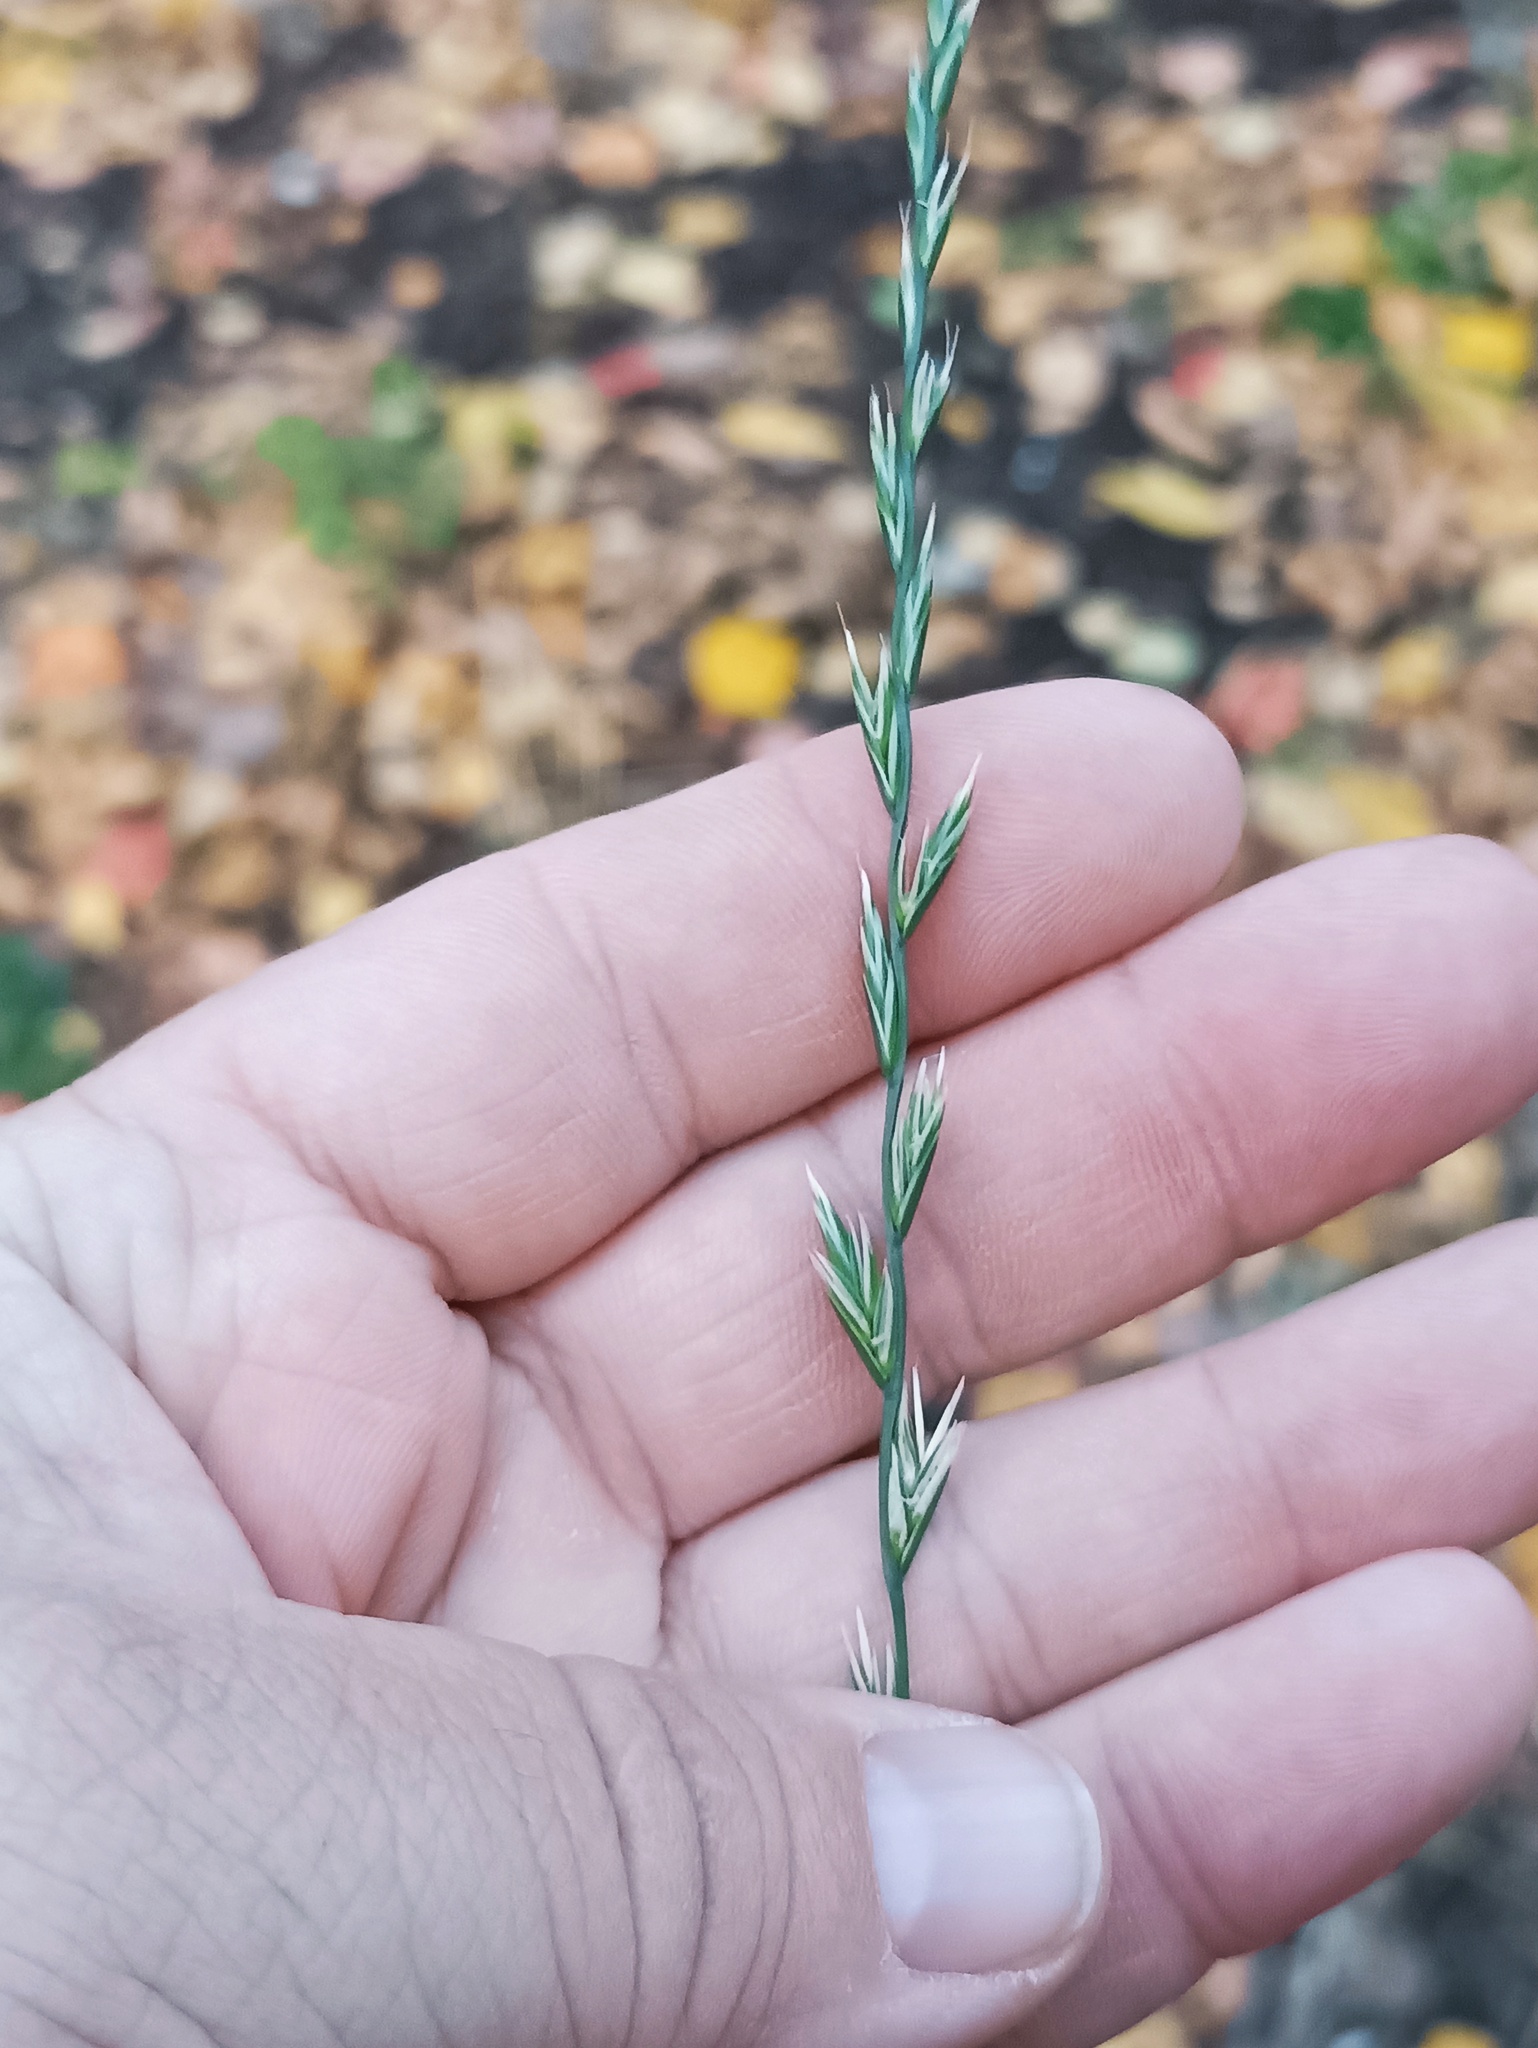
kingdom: Plantae
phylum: Tracheophyta
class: Liliopsida
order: Poales
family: Poaceae
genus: Lolium
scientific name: Lolium multiflorum
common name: Annual ryegrass
